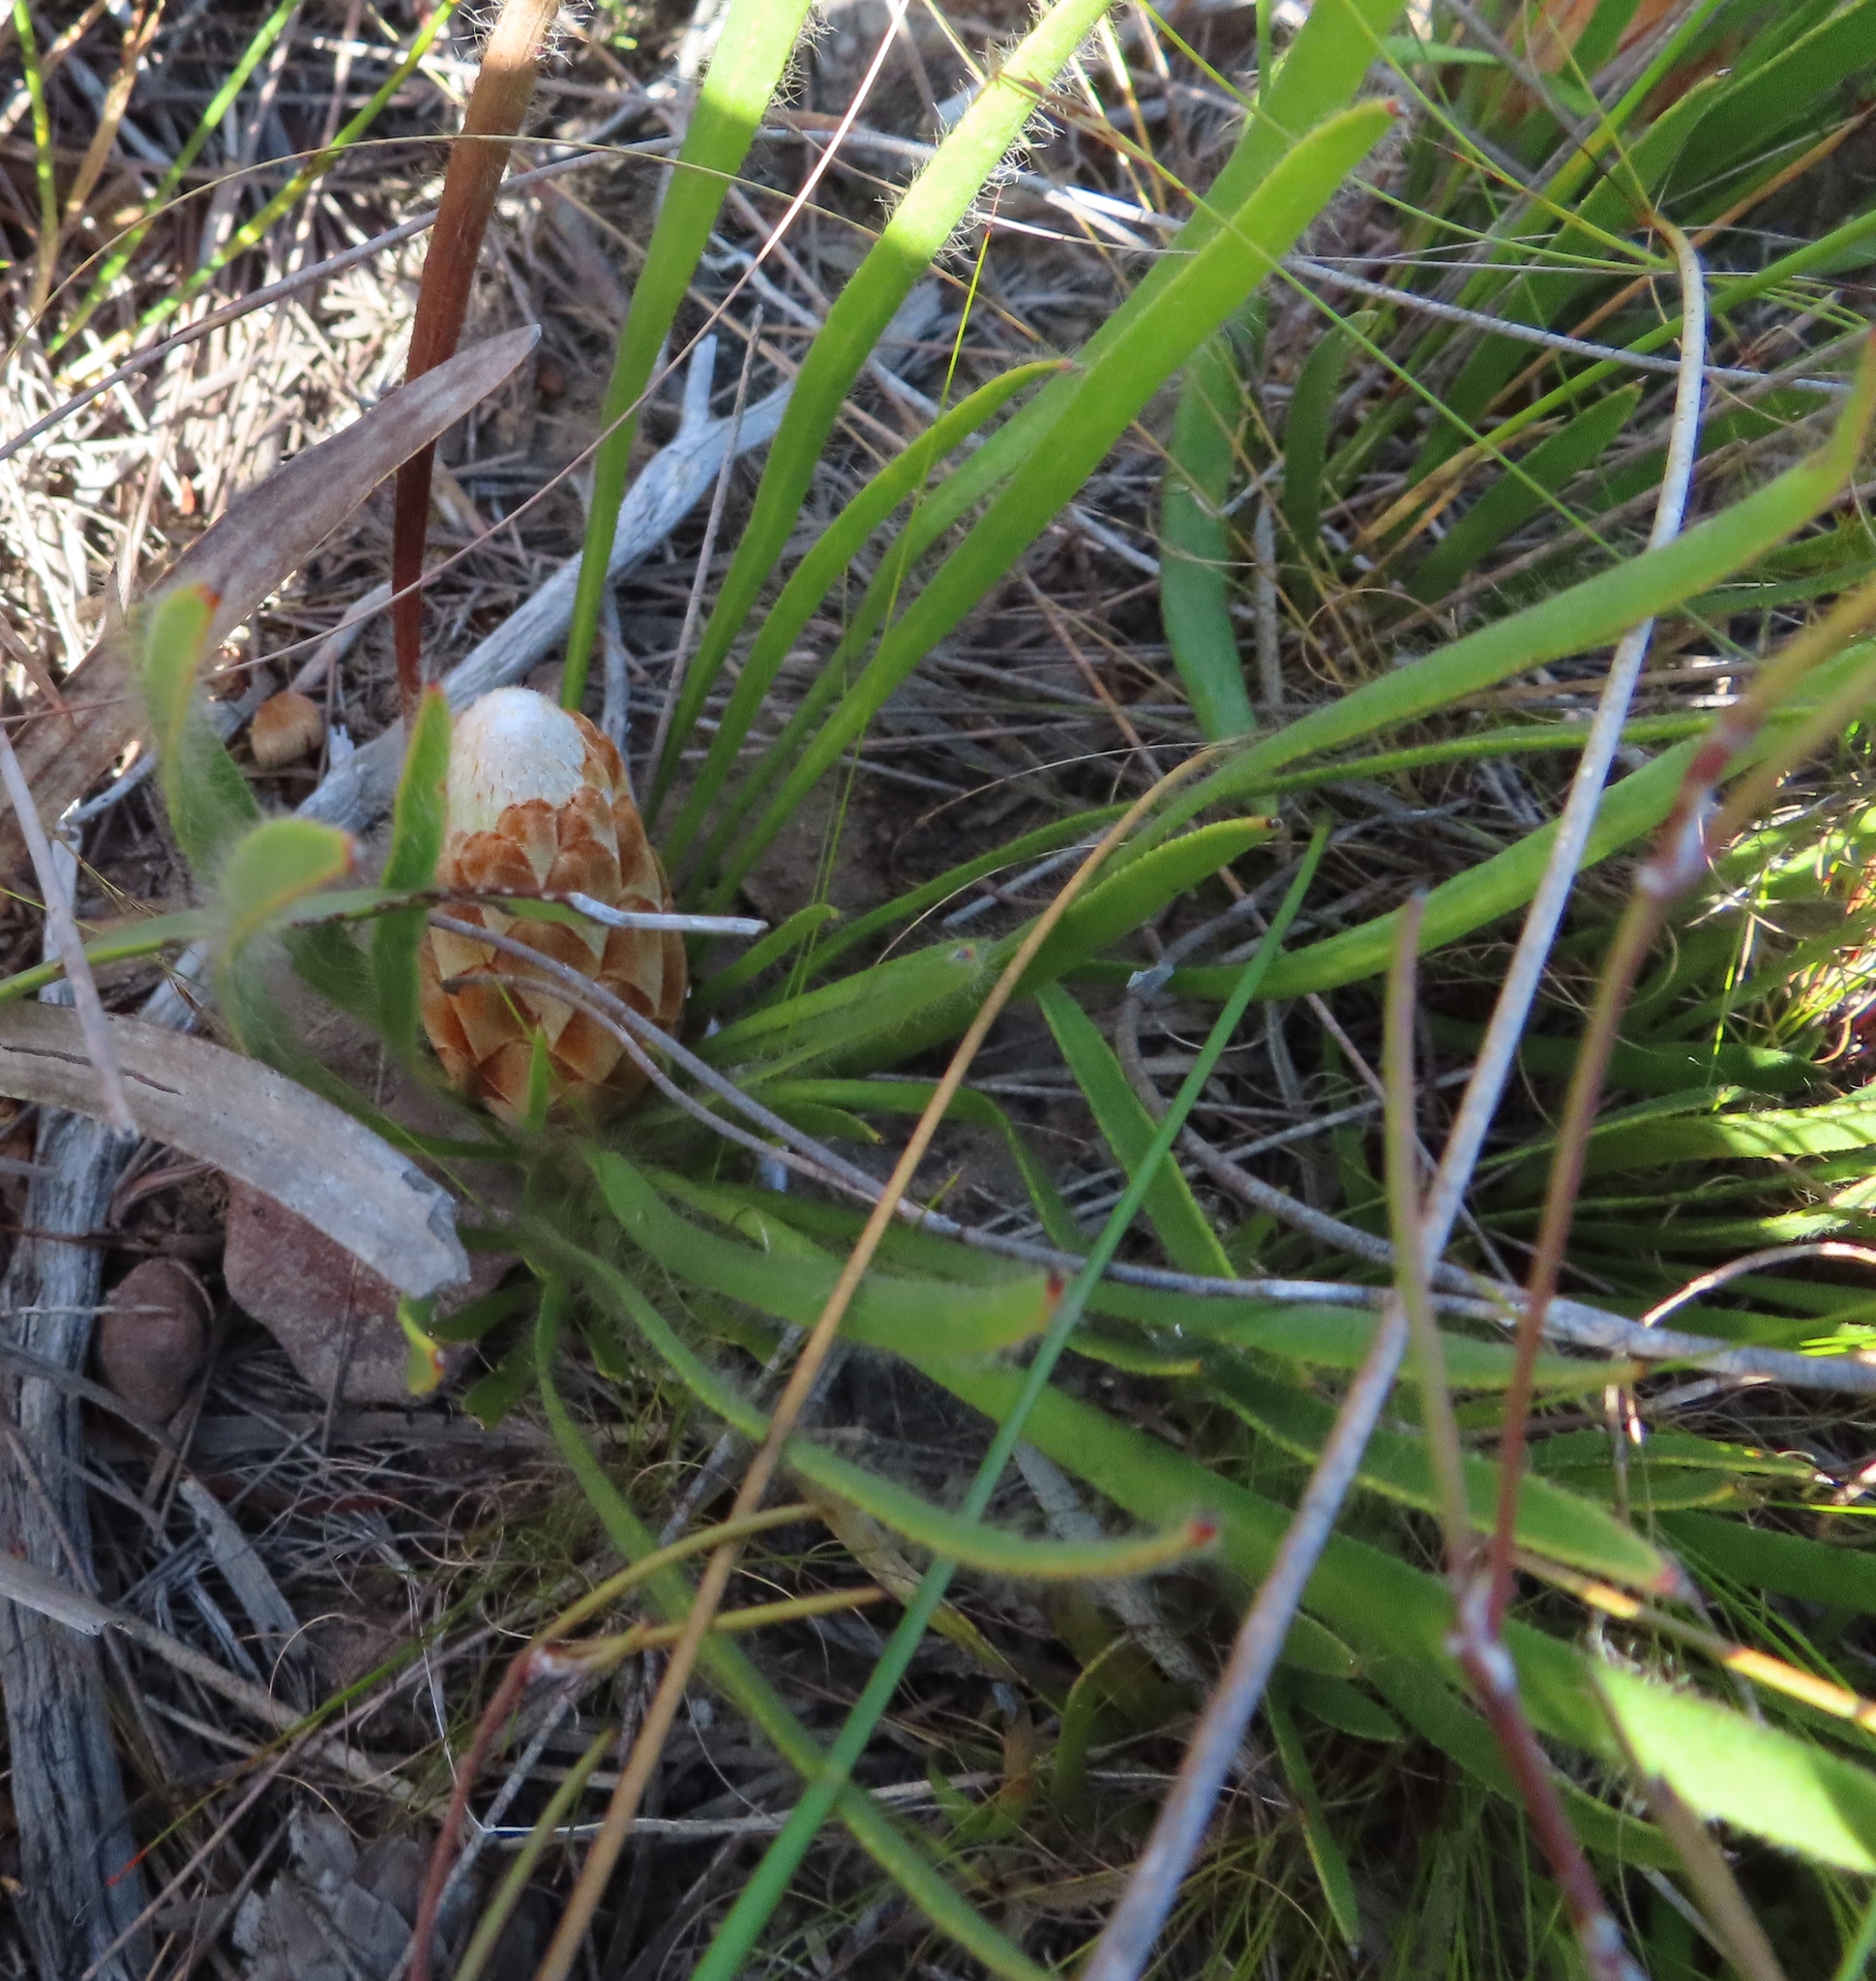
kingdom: Plantae
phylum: Tracheophyta
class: Magnoliopsida
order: Proteales
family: Proteaceae
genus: Protea
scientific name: Protea aspera
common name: Rough-leaf sugarbush
